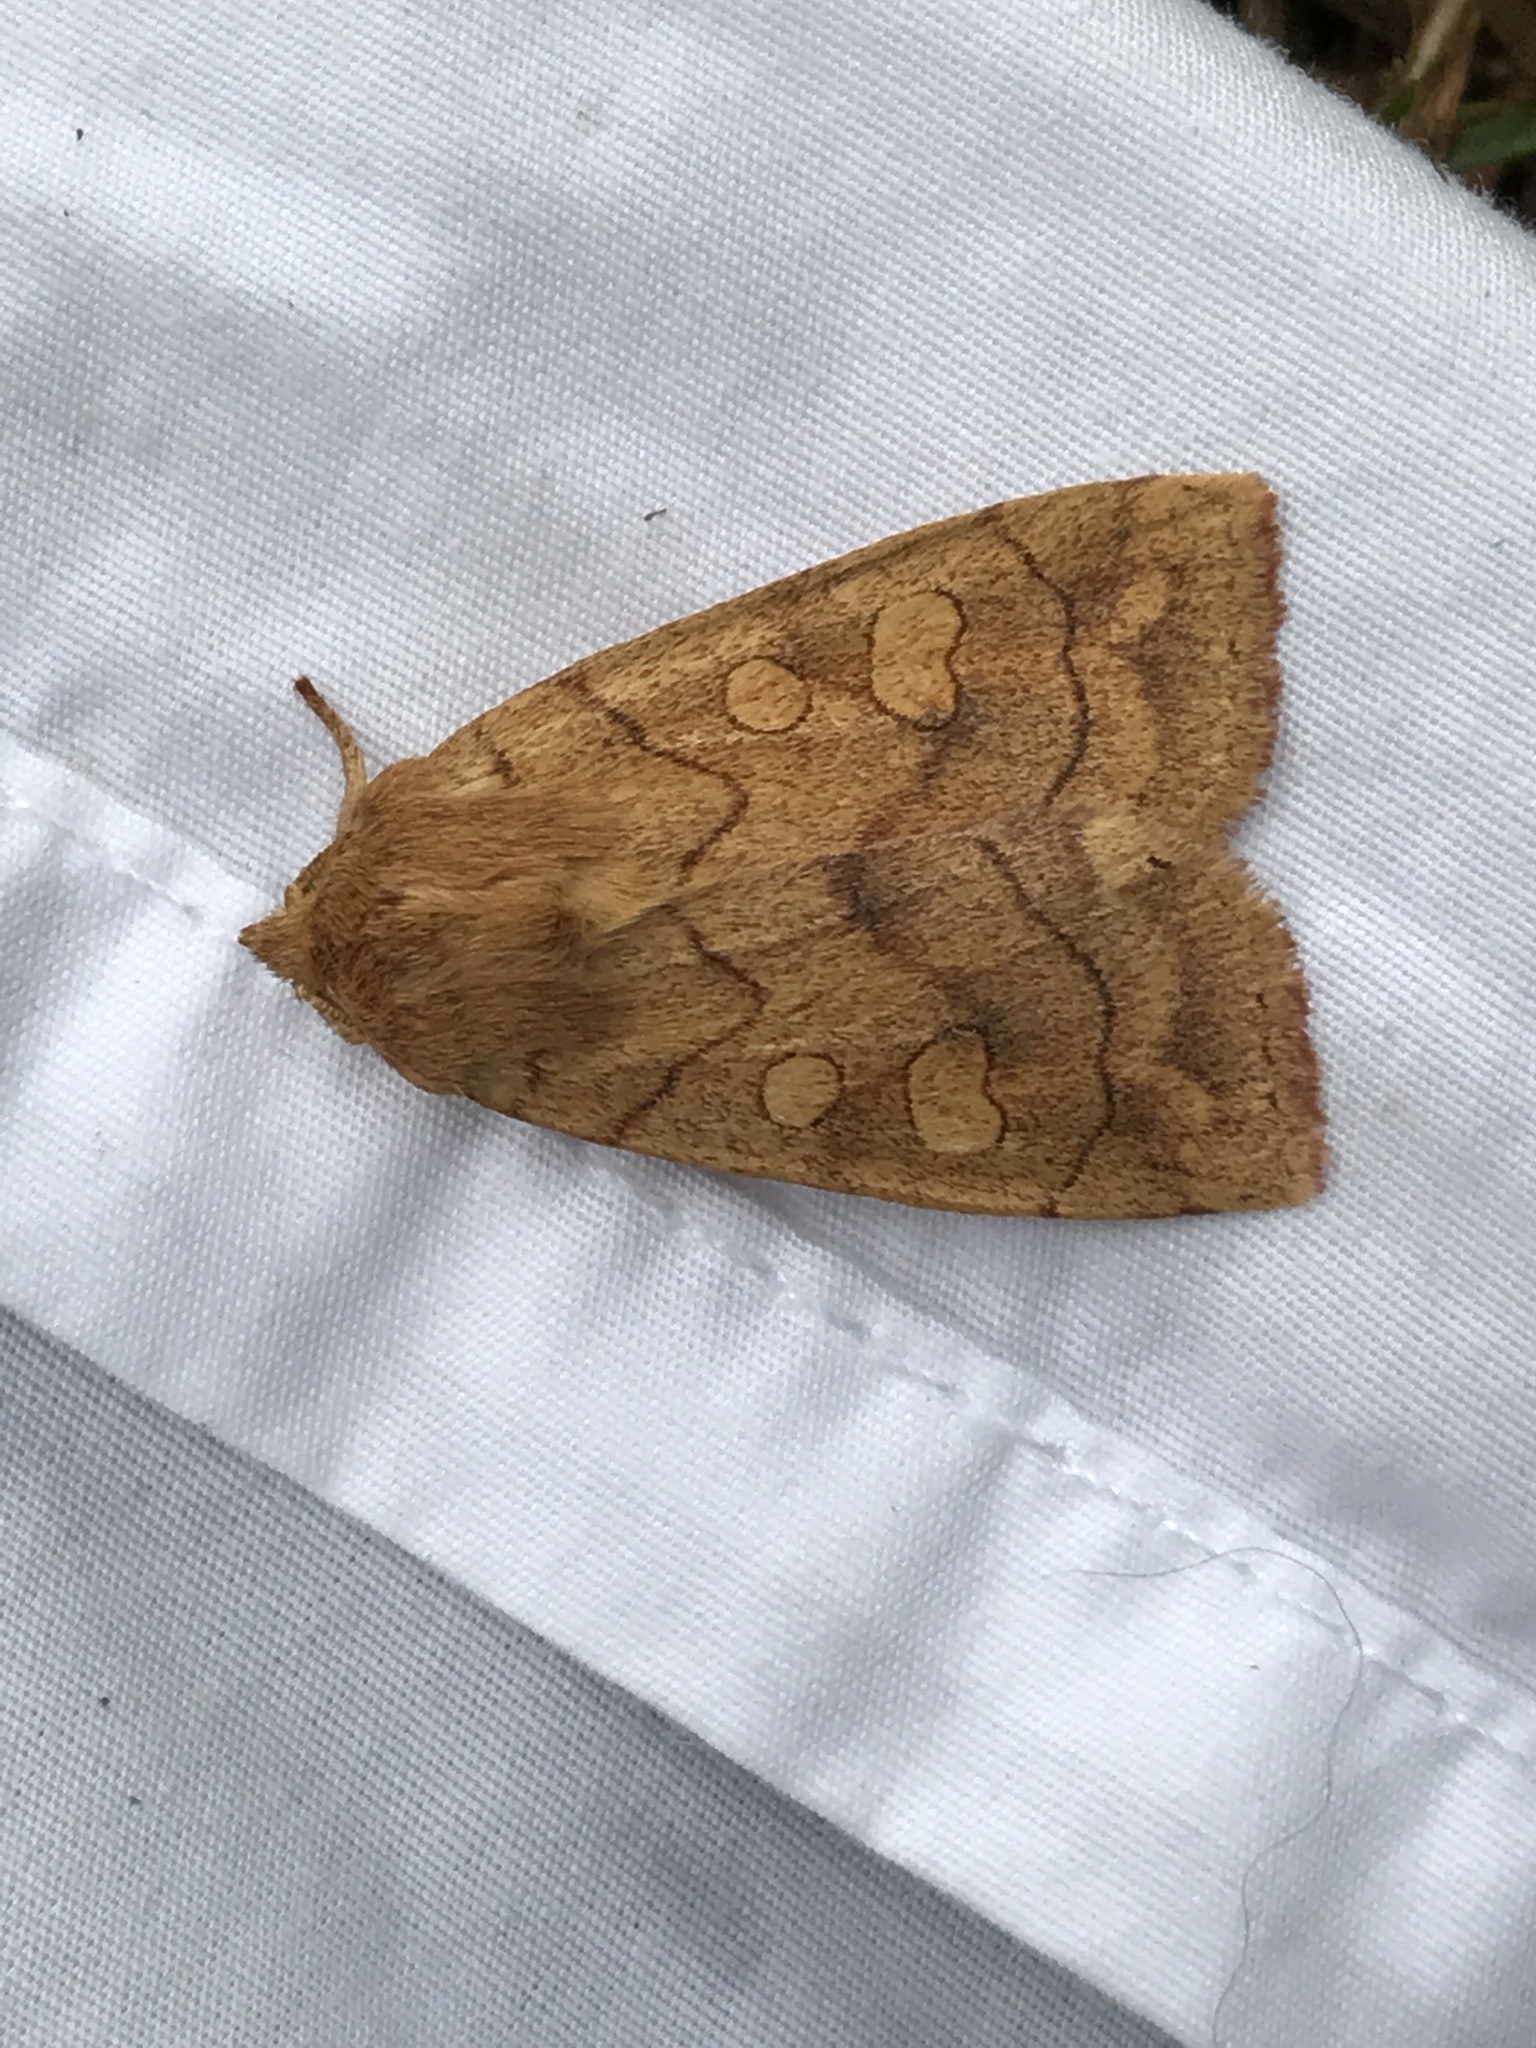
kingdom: Animalia
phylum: Arthropoda
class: Insecta
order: Lepidoptera
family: Noctuidae
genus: Enargia
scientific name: Enargia decolor
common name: Aspen twoleaf tier moth
